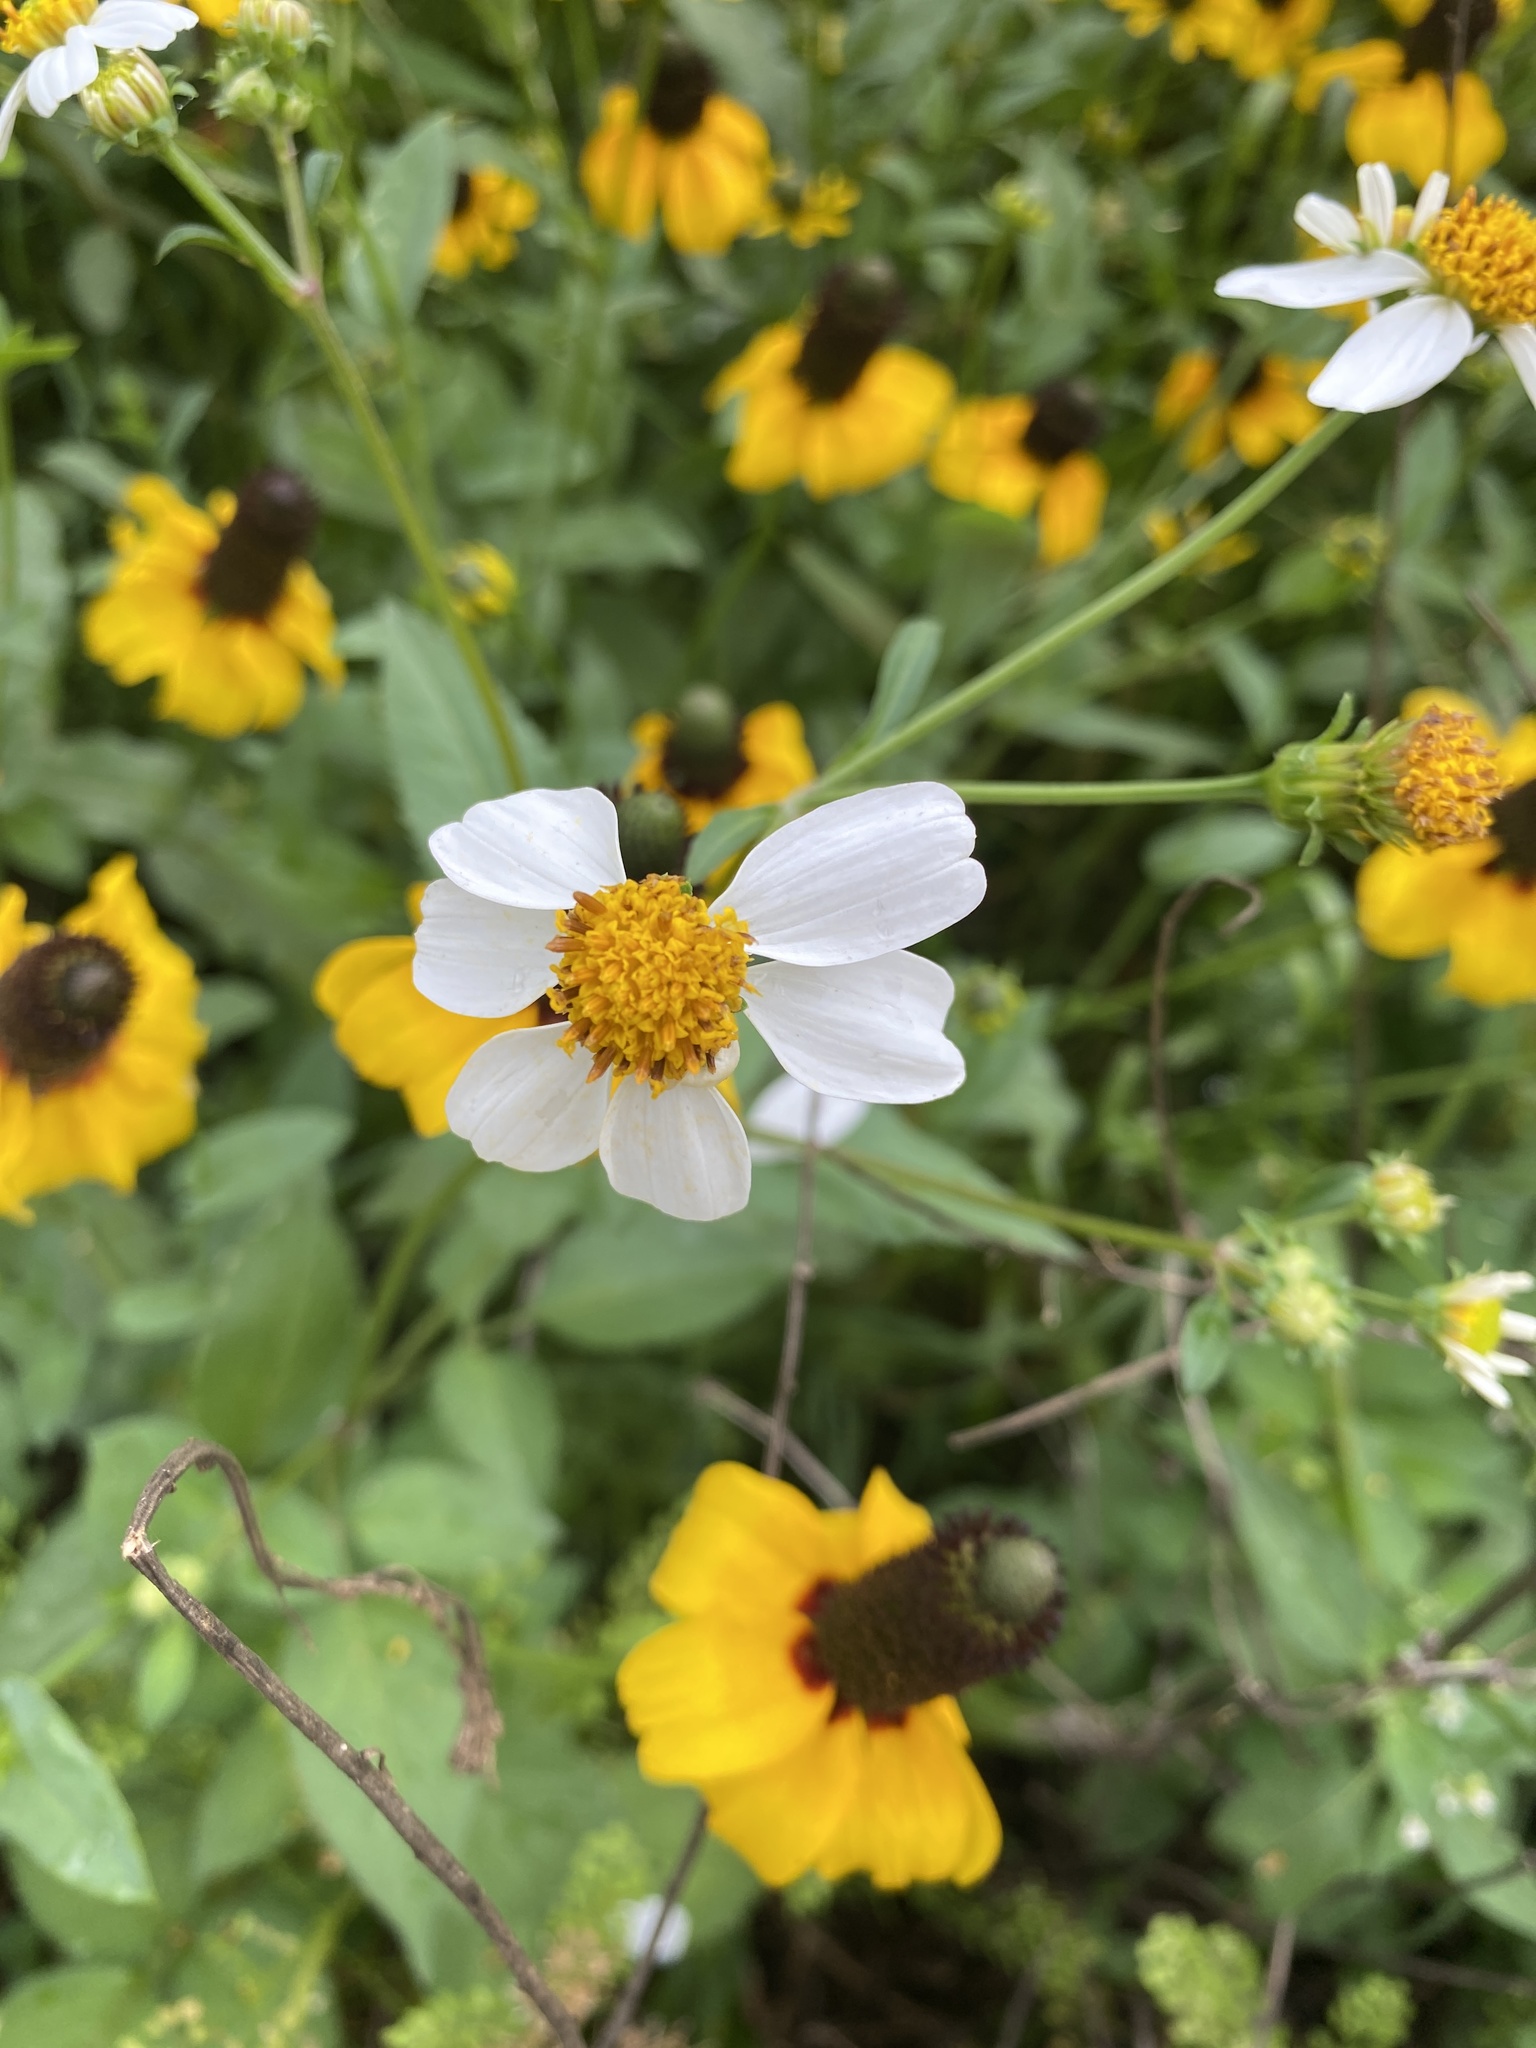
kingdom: Plantae
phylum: Tracheophyta
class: Magnoliopsida
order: Asterales
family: Asteraceae
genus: Bidens
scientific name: Bidens alba
